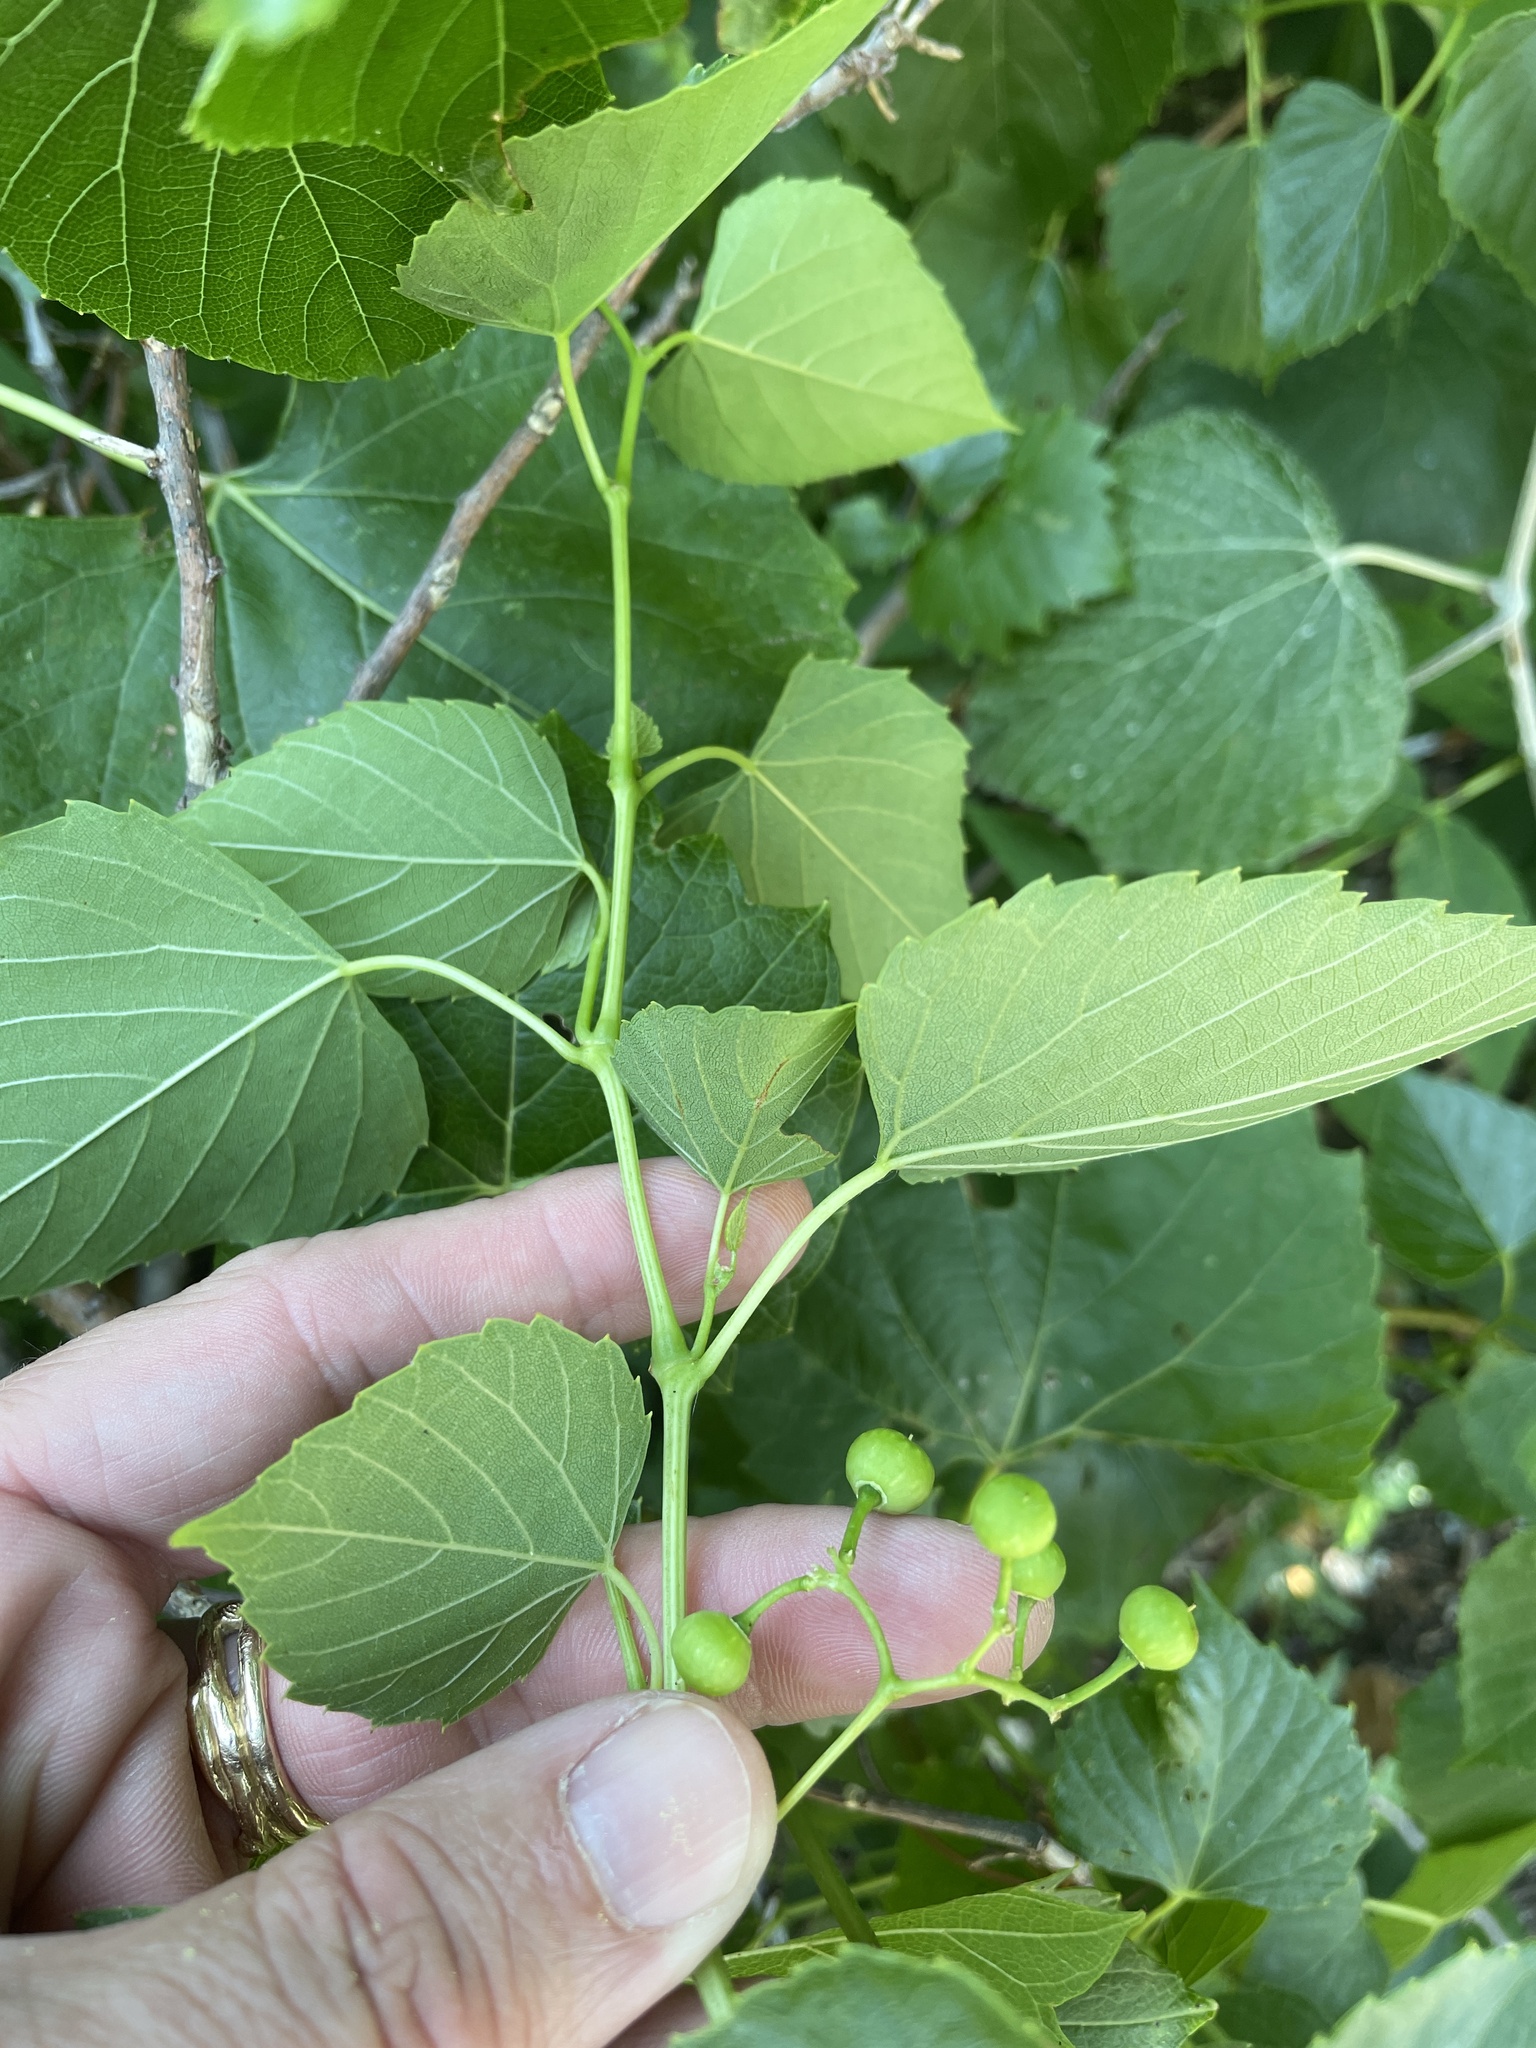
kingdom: Plantae
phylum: Tracheophyta
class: Magnoliopsida
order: Vitales
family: Vitaceae
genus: Ampelopsis
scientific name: Ampelopsis cordata
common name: Heart-leaf ampelopsis
